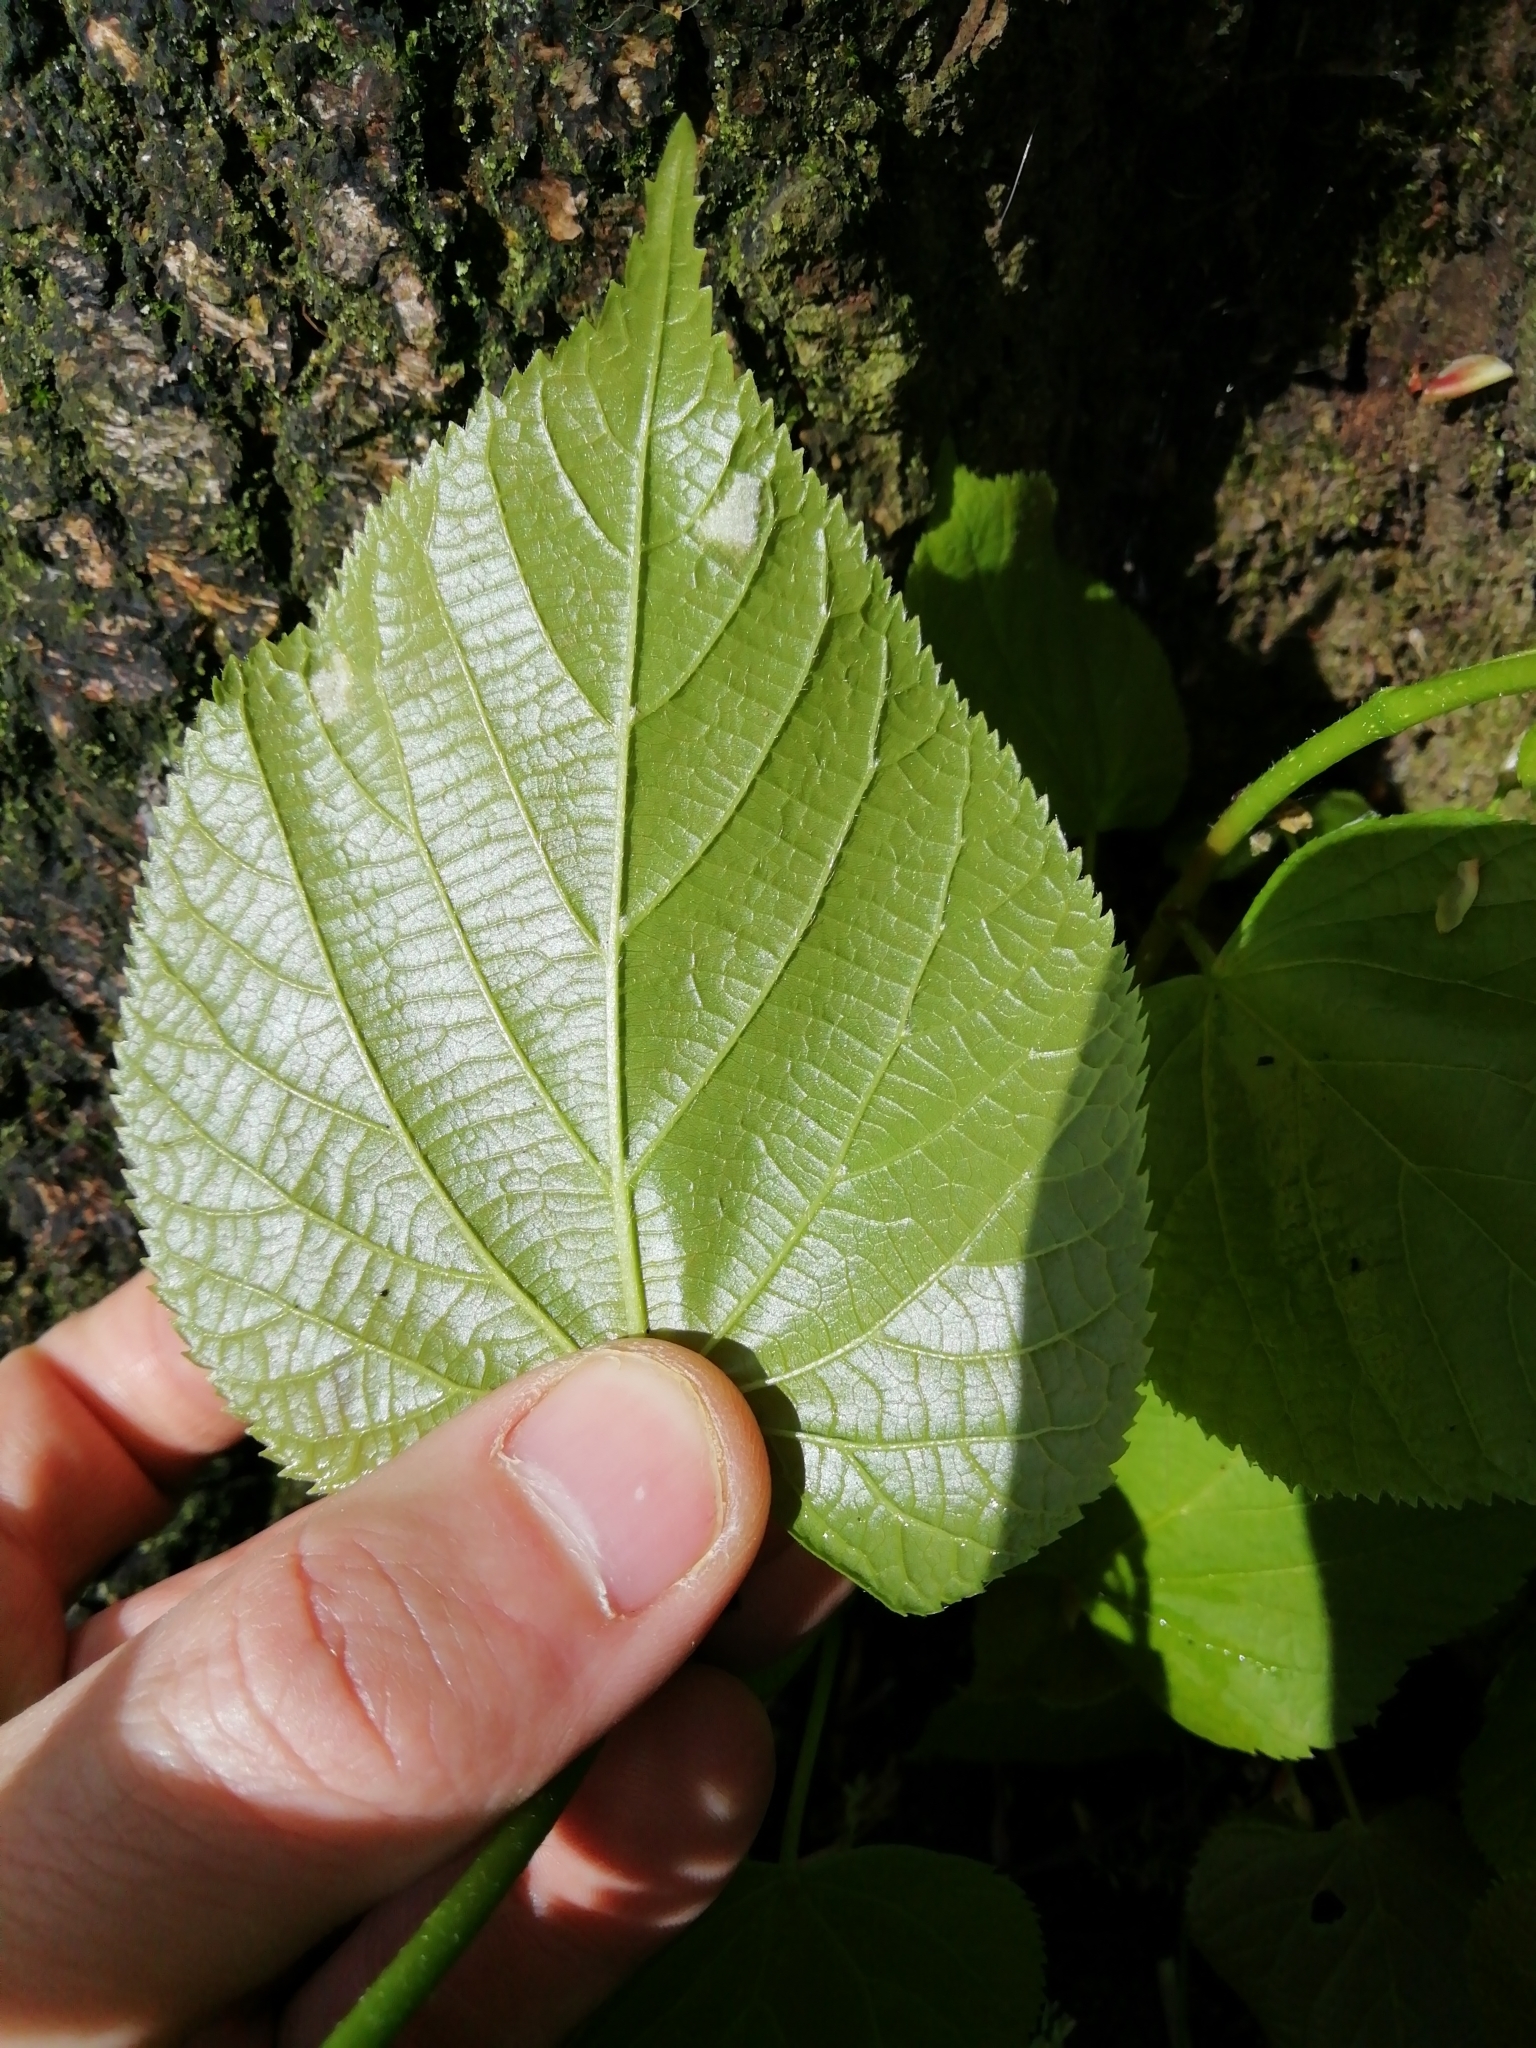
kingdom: Plantae
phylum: Tracheophyta
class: Magnoliopsida
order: Malvales
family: Malvaceae
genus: Tilia
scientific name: Tilia europaea
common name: European linden
